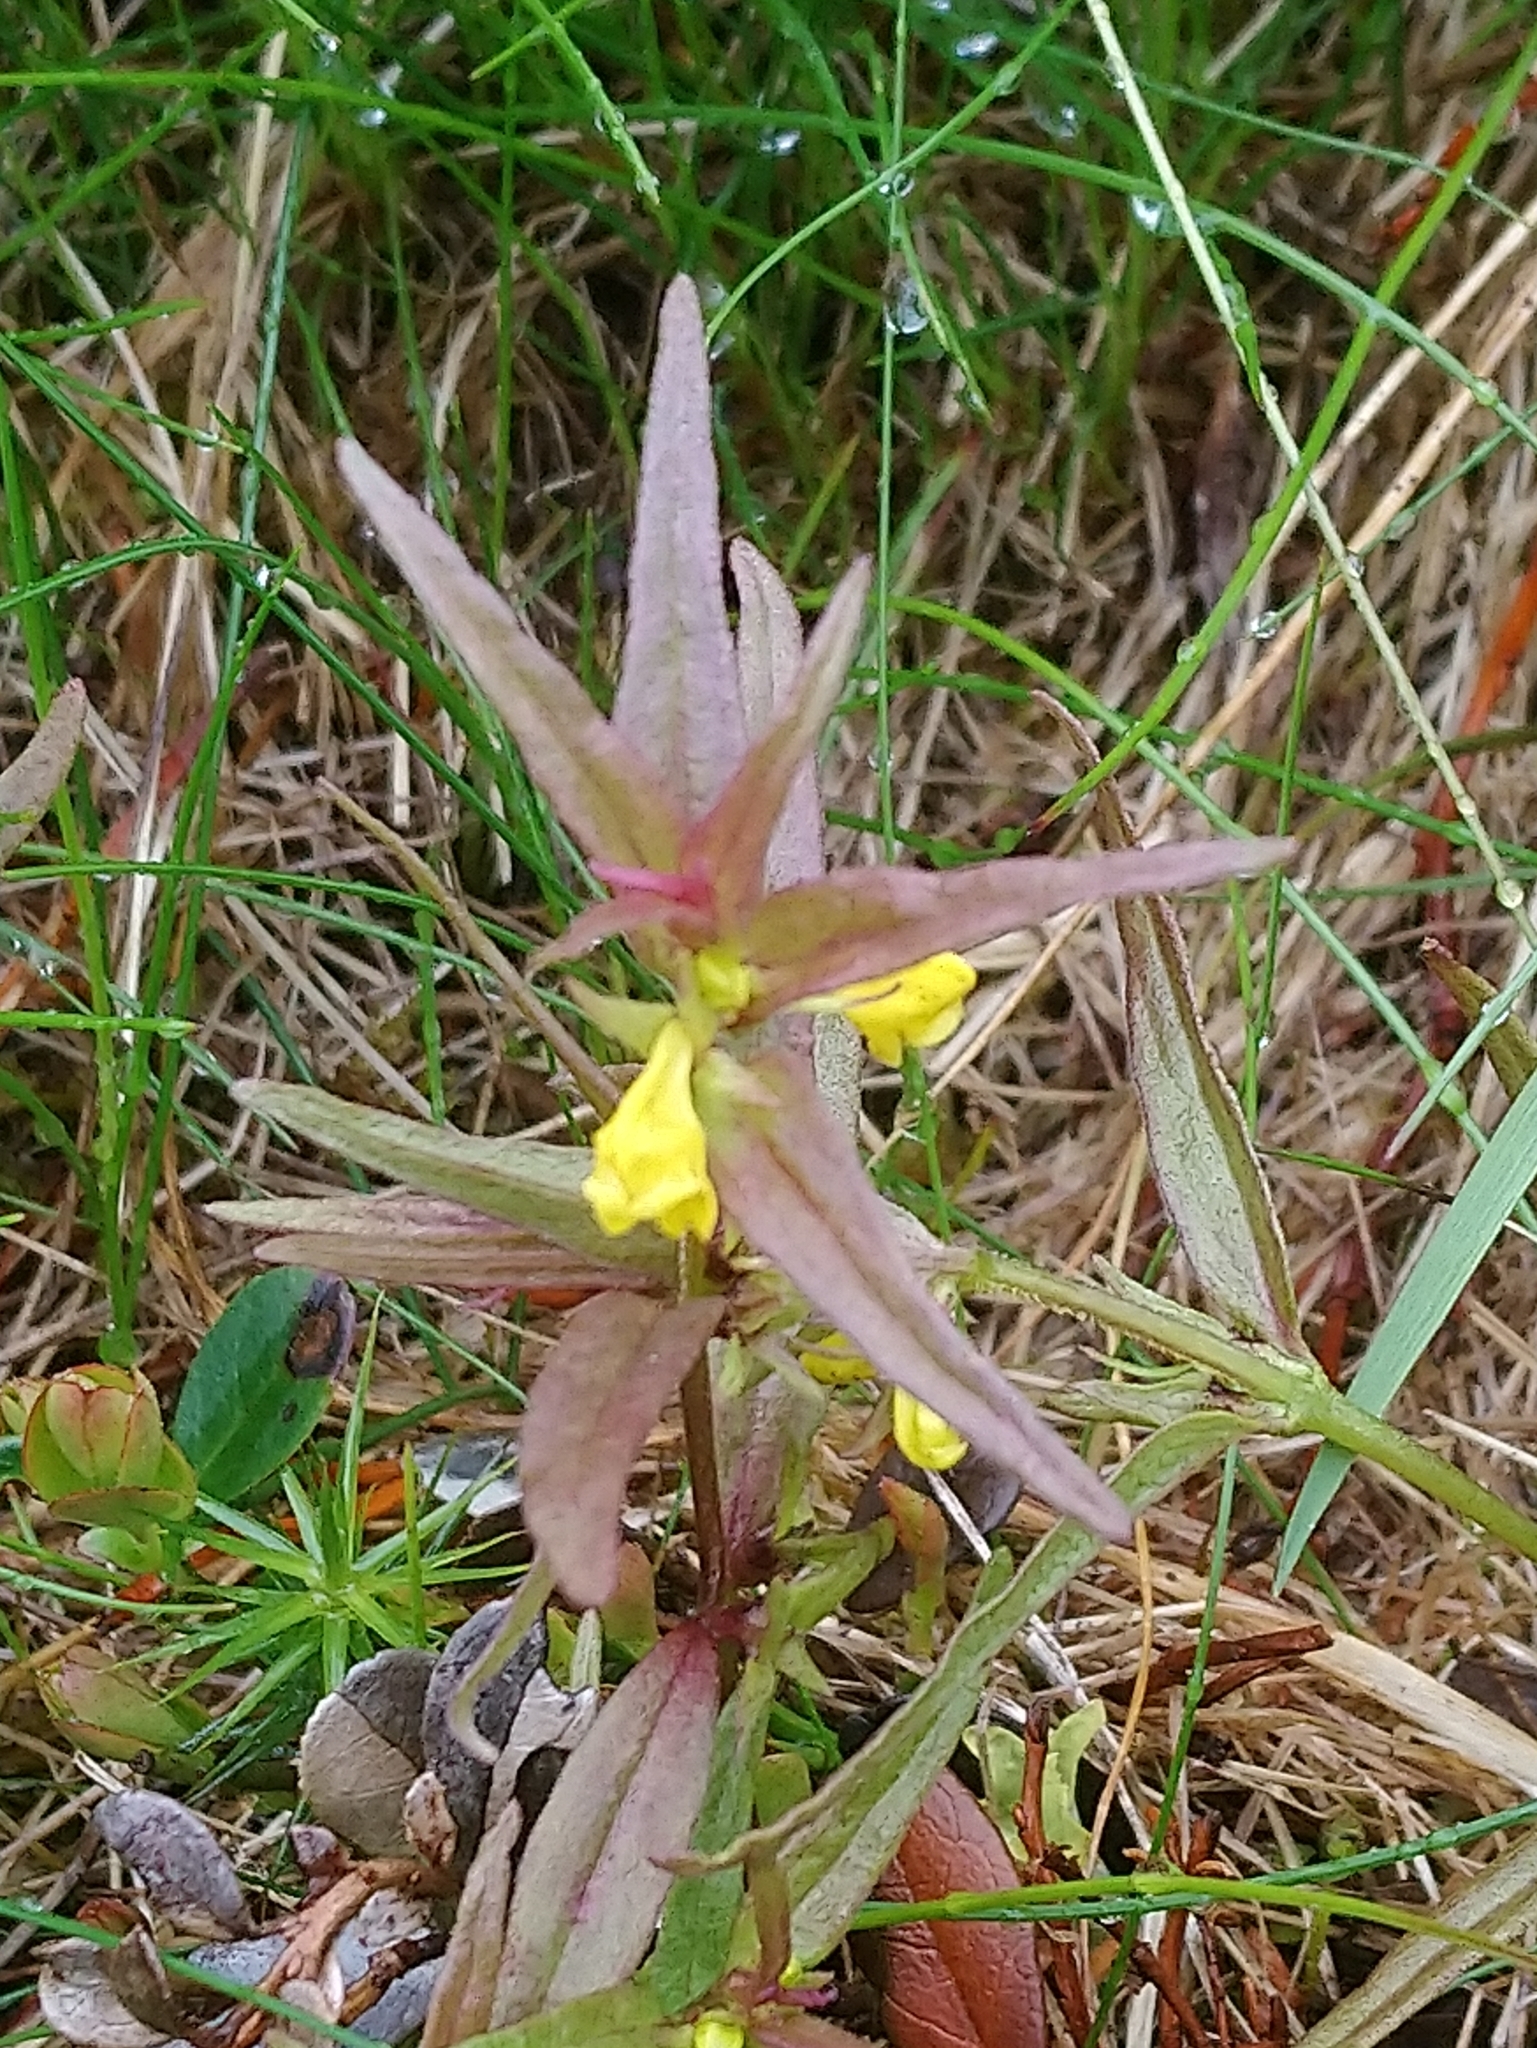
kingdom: Plantae
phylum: Tracheophyta
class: Magnoliopsida
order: Lamiales
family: Orobanchaceae
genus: Melampyrum
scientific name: Melampyrum sylvaticum
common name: Small cow-wheat
